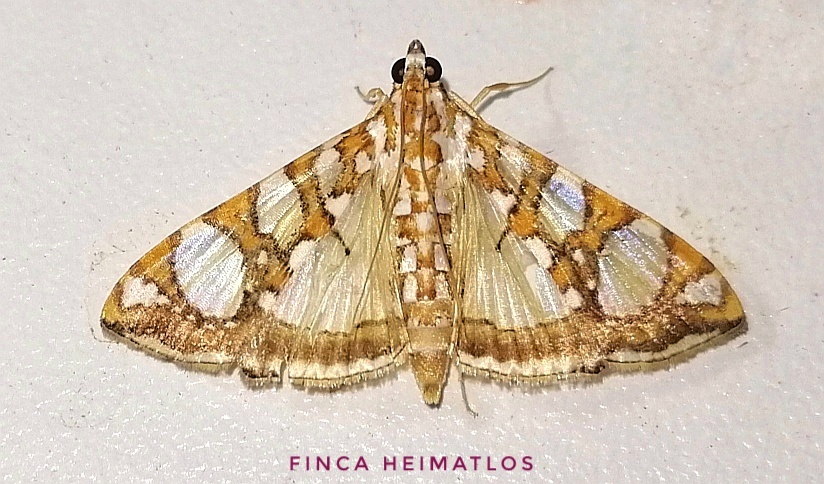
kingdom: Animalia
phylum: Arthropoda
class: Insecta
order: Lepidoptera
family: Crambidae
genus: Glyphodes
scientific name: Glyphodes sibillalis
